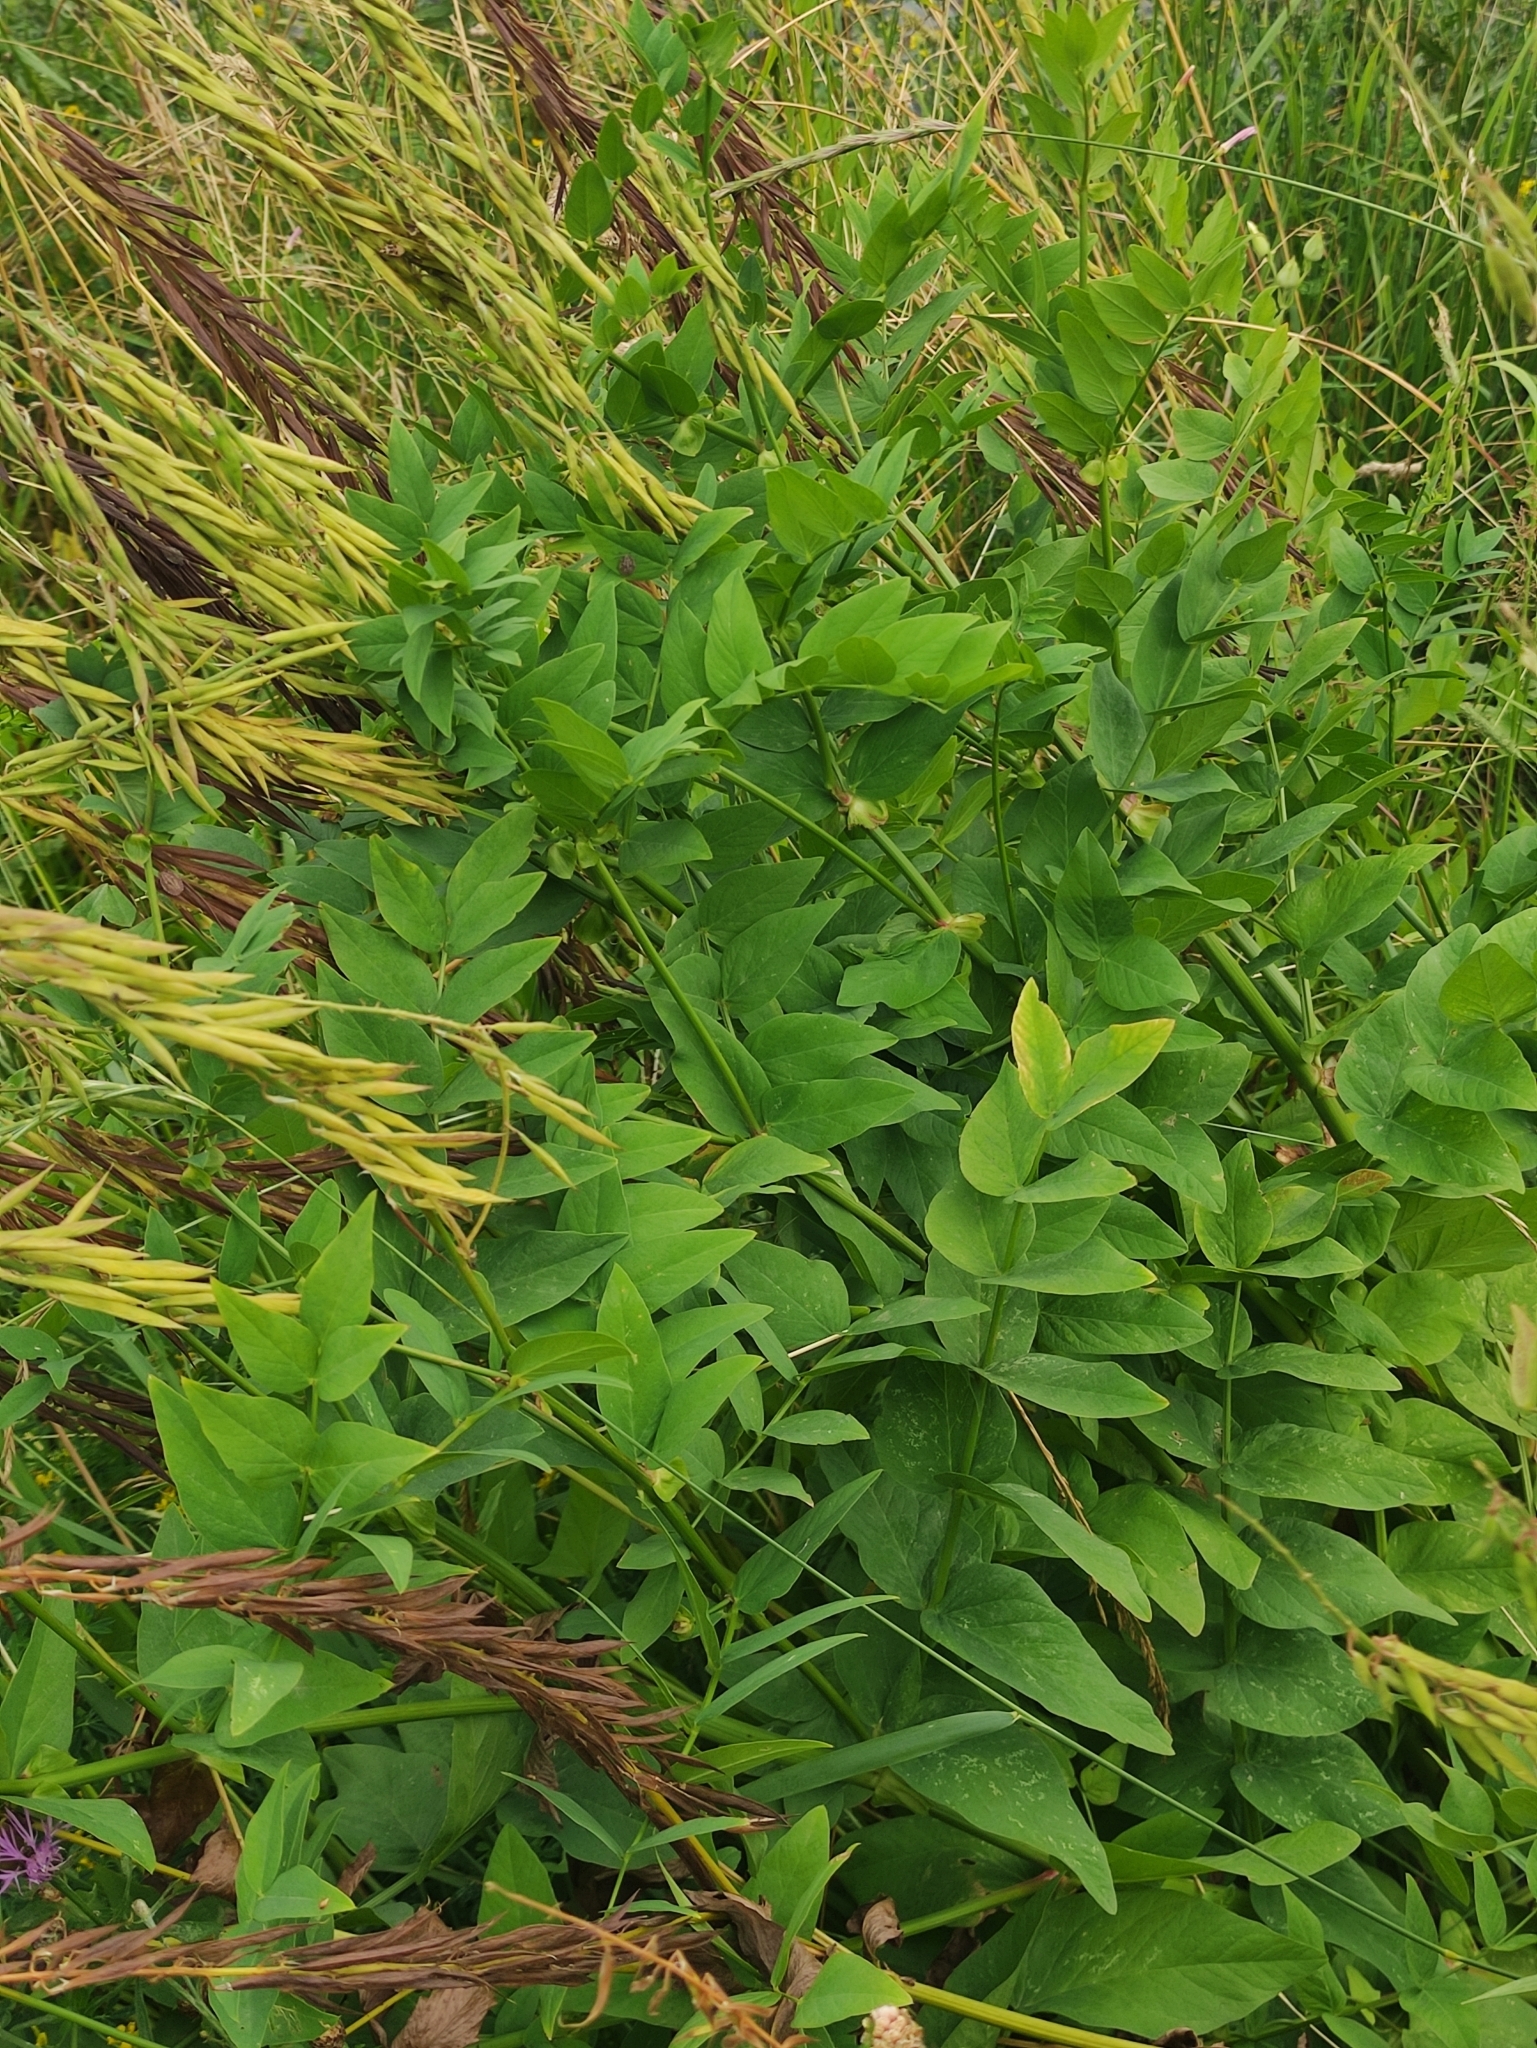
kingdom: Plantae
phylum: Tracheophyta
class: Magnoliopsida
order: Fabales
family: Fabaceae
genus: Galega
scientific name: Galega orientalis
